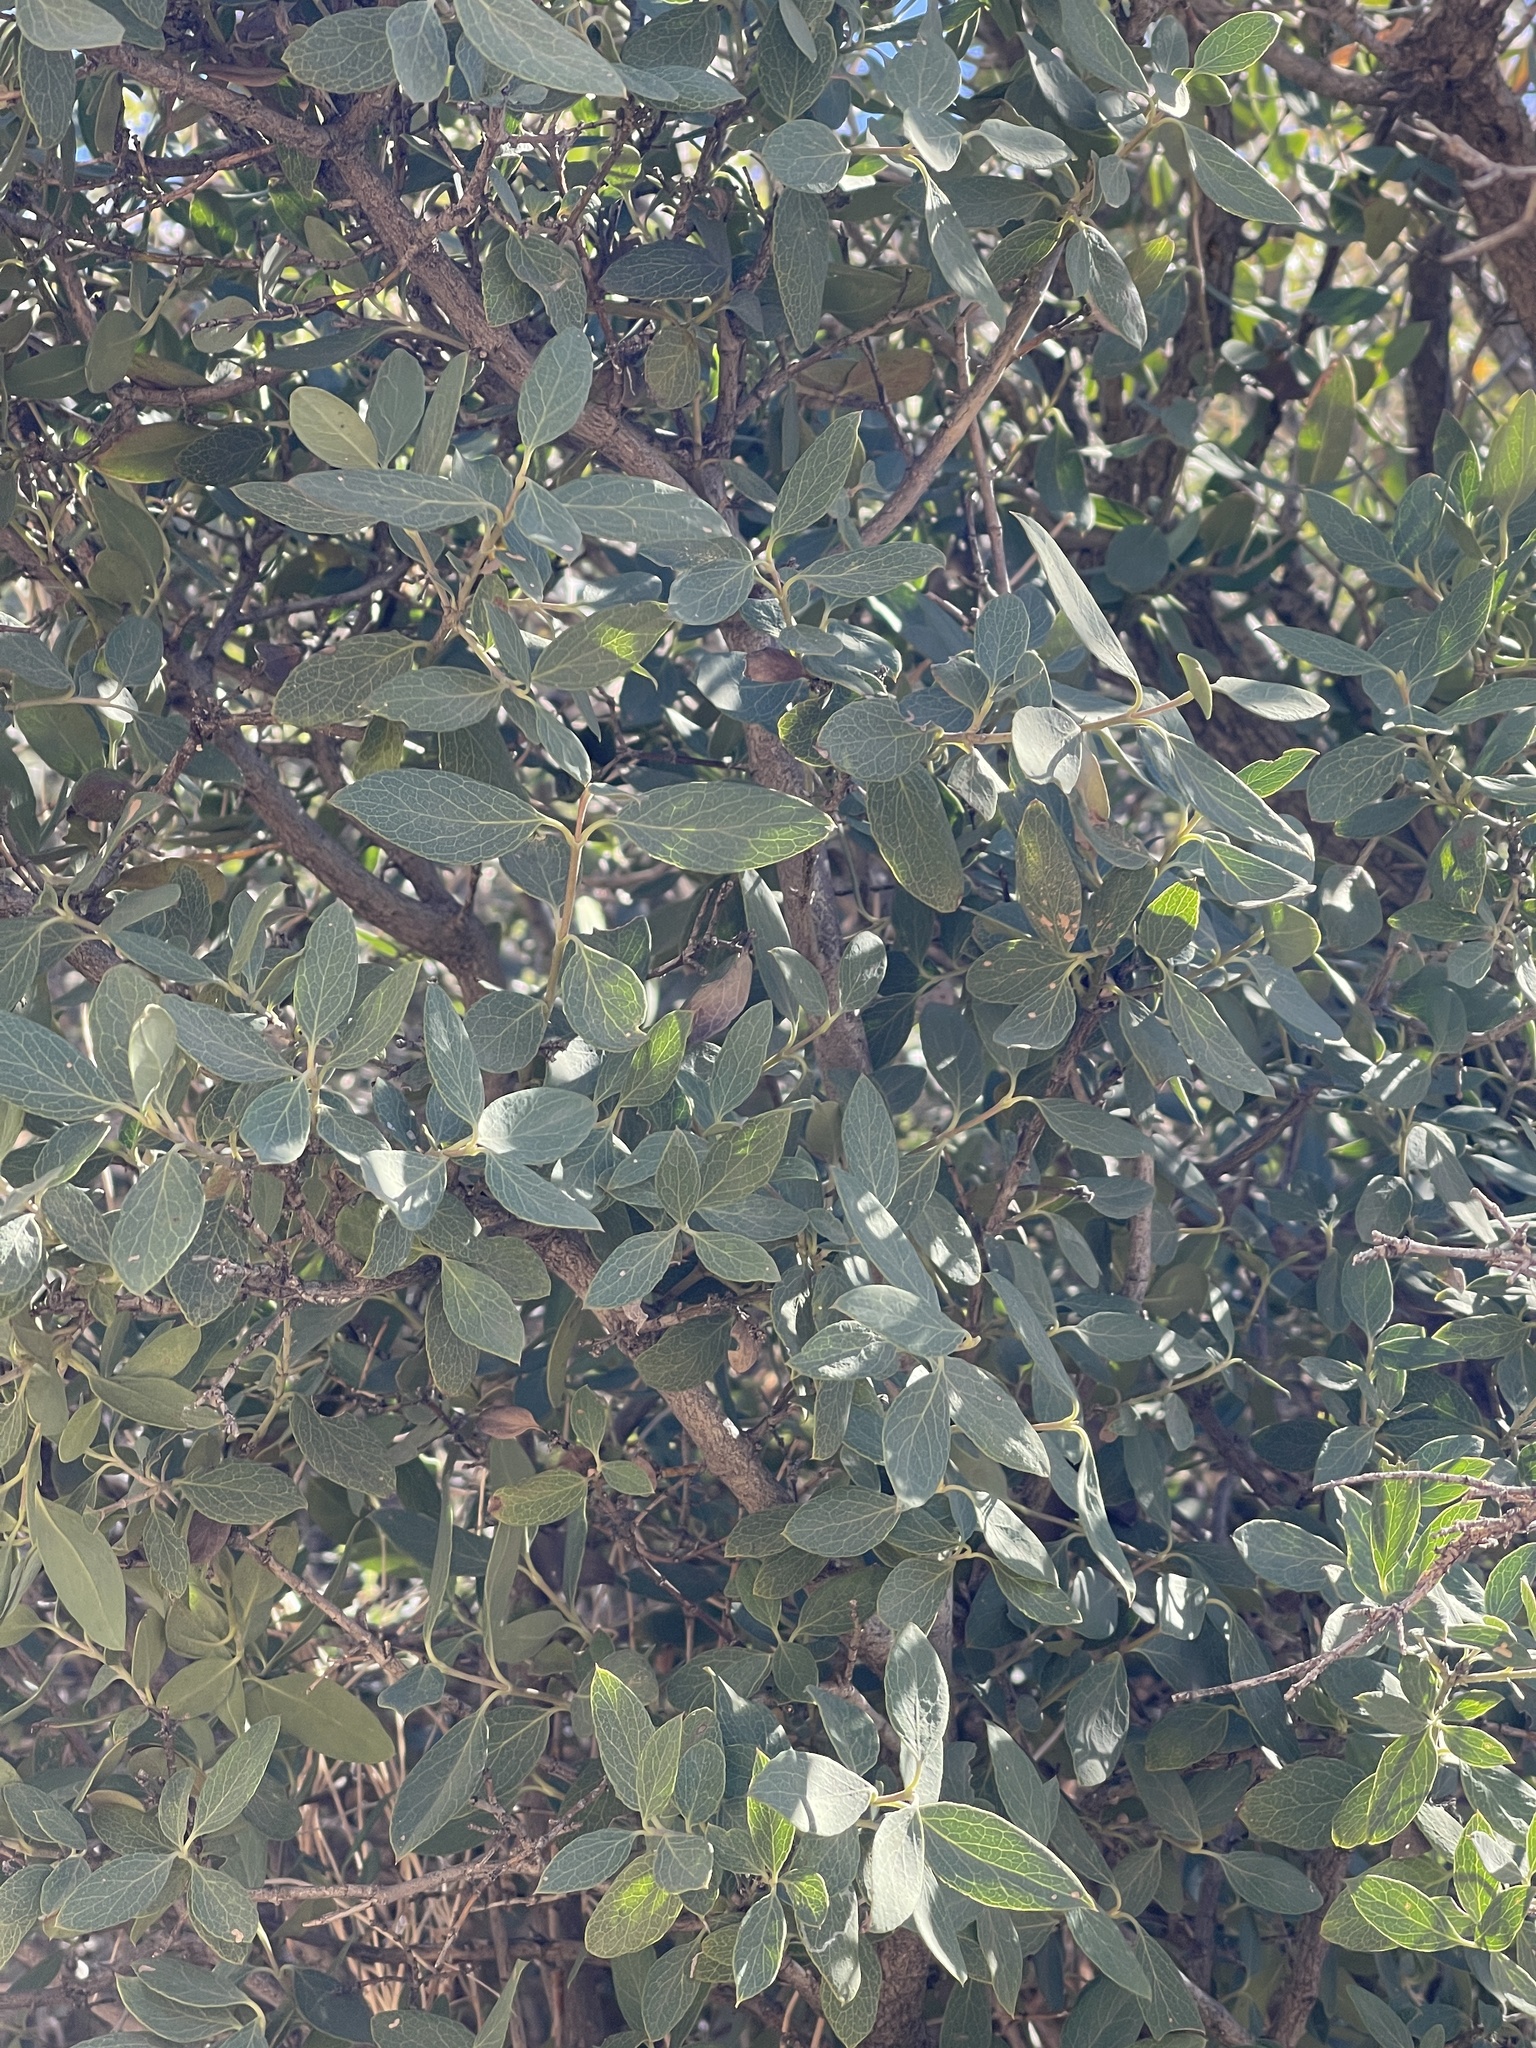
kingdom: Plantae
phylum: Tracheophyta
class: Magnoliopsida
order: Garryales
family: Garryaceae
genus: Garrya
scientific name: Garrya wrightii
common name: Wright's silktassel
